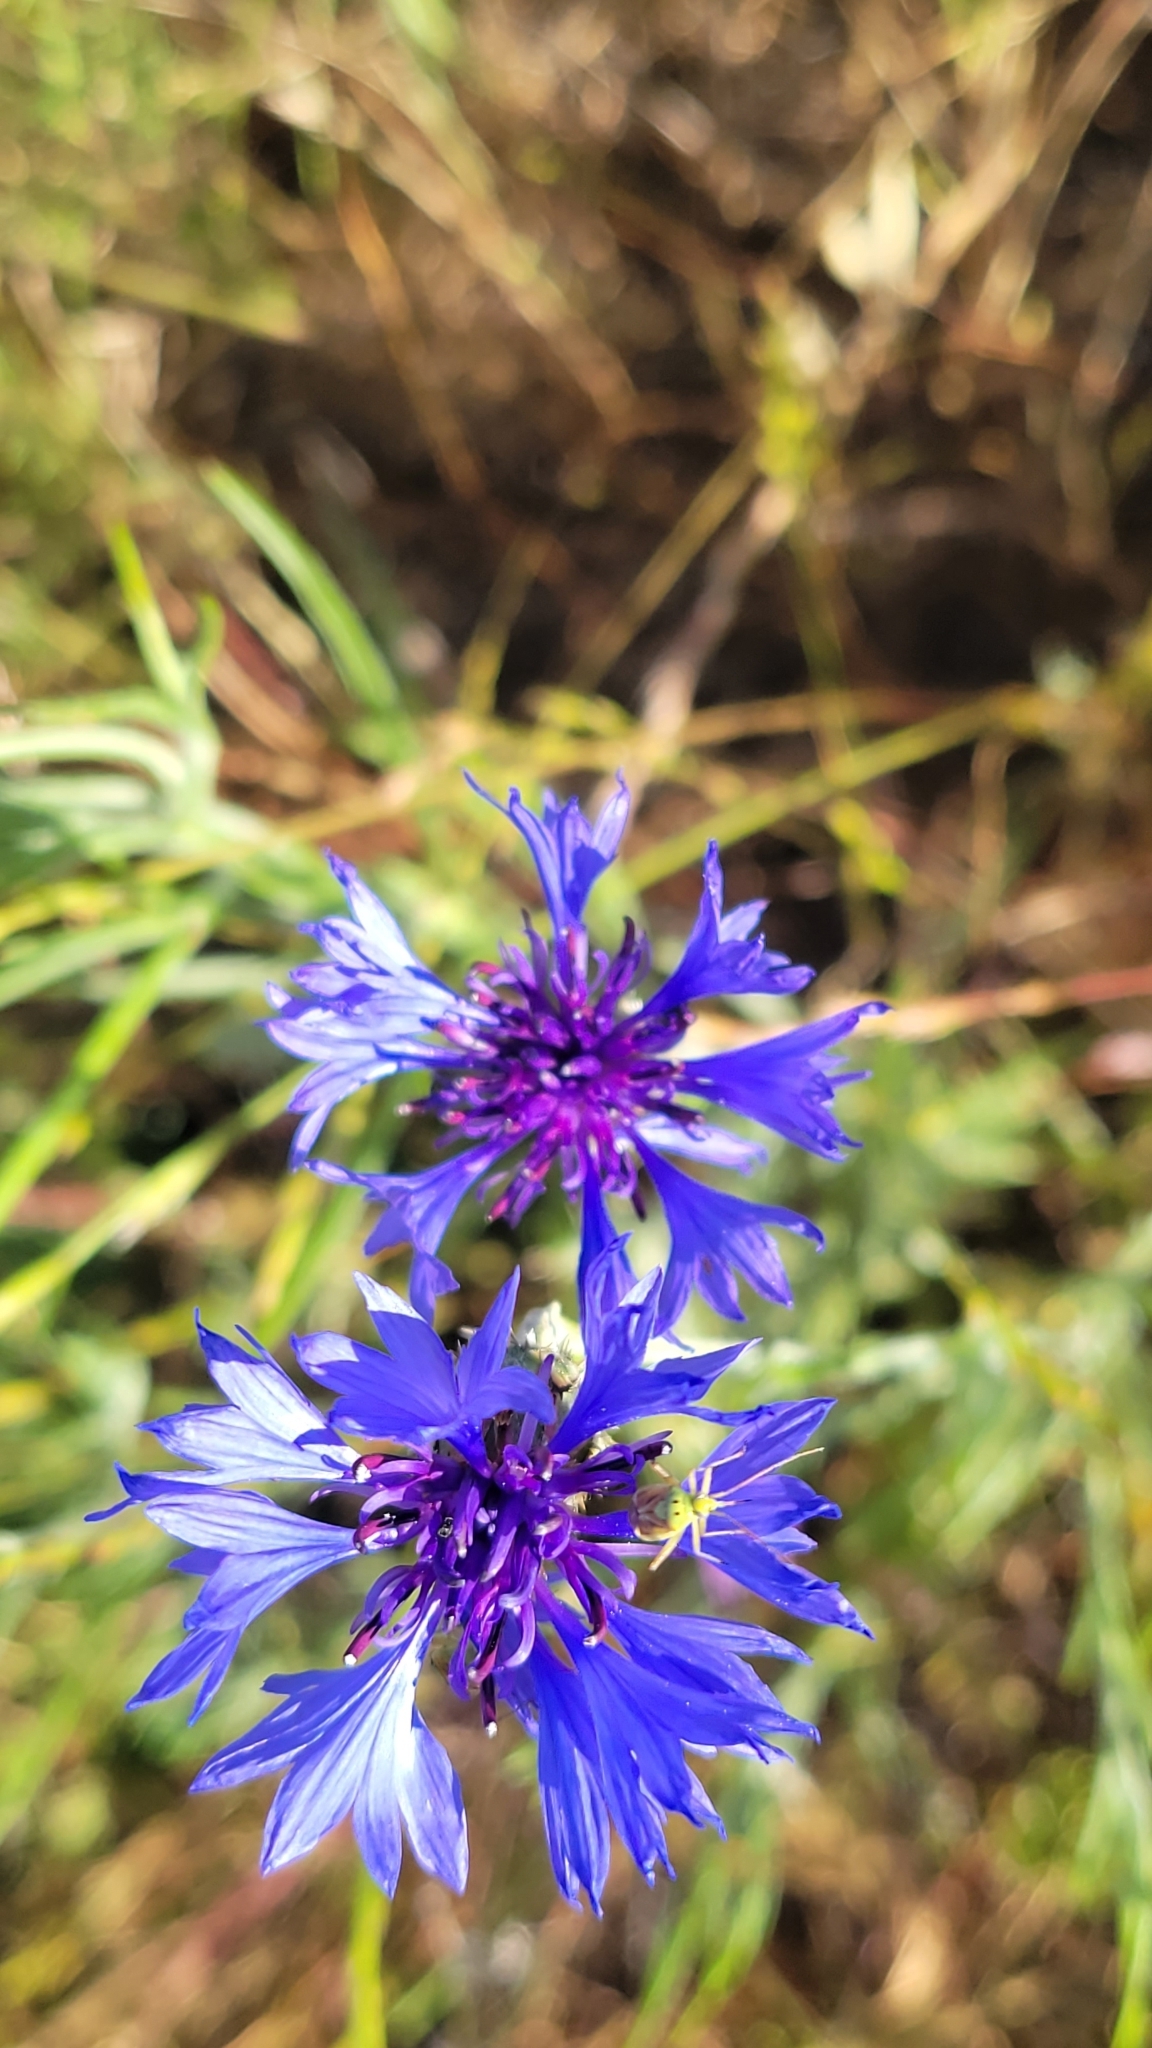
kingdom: Plantae
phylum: Tracheophyta
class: Magnoliopsida
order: Asterales
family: Asteraceae
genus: Centaurea
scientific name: Centaurea cyanus
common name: Cornflower
